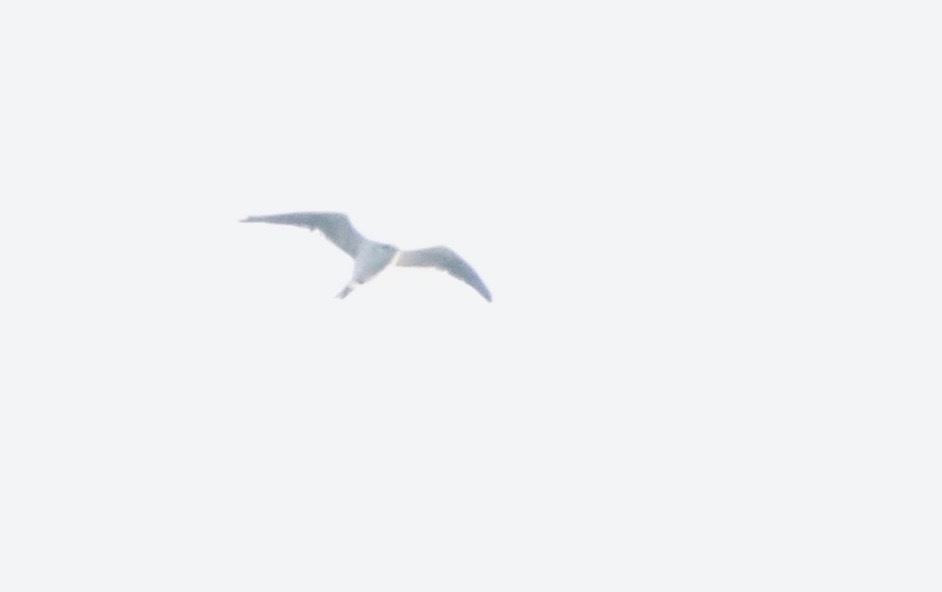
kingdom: Animalia
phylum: Chordata
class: Aves
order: Accipitriformes
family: Accipitridae
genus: Elanus
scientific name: Elanus leucurus
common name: White-tailed kite
